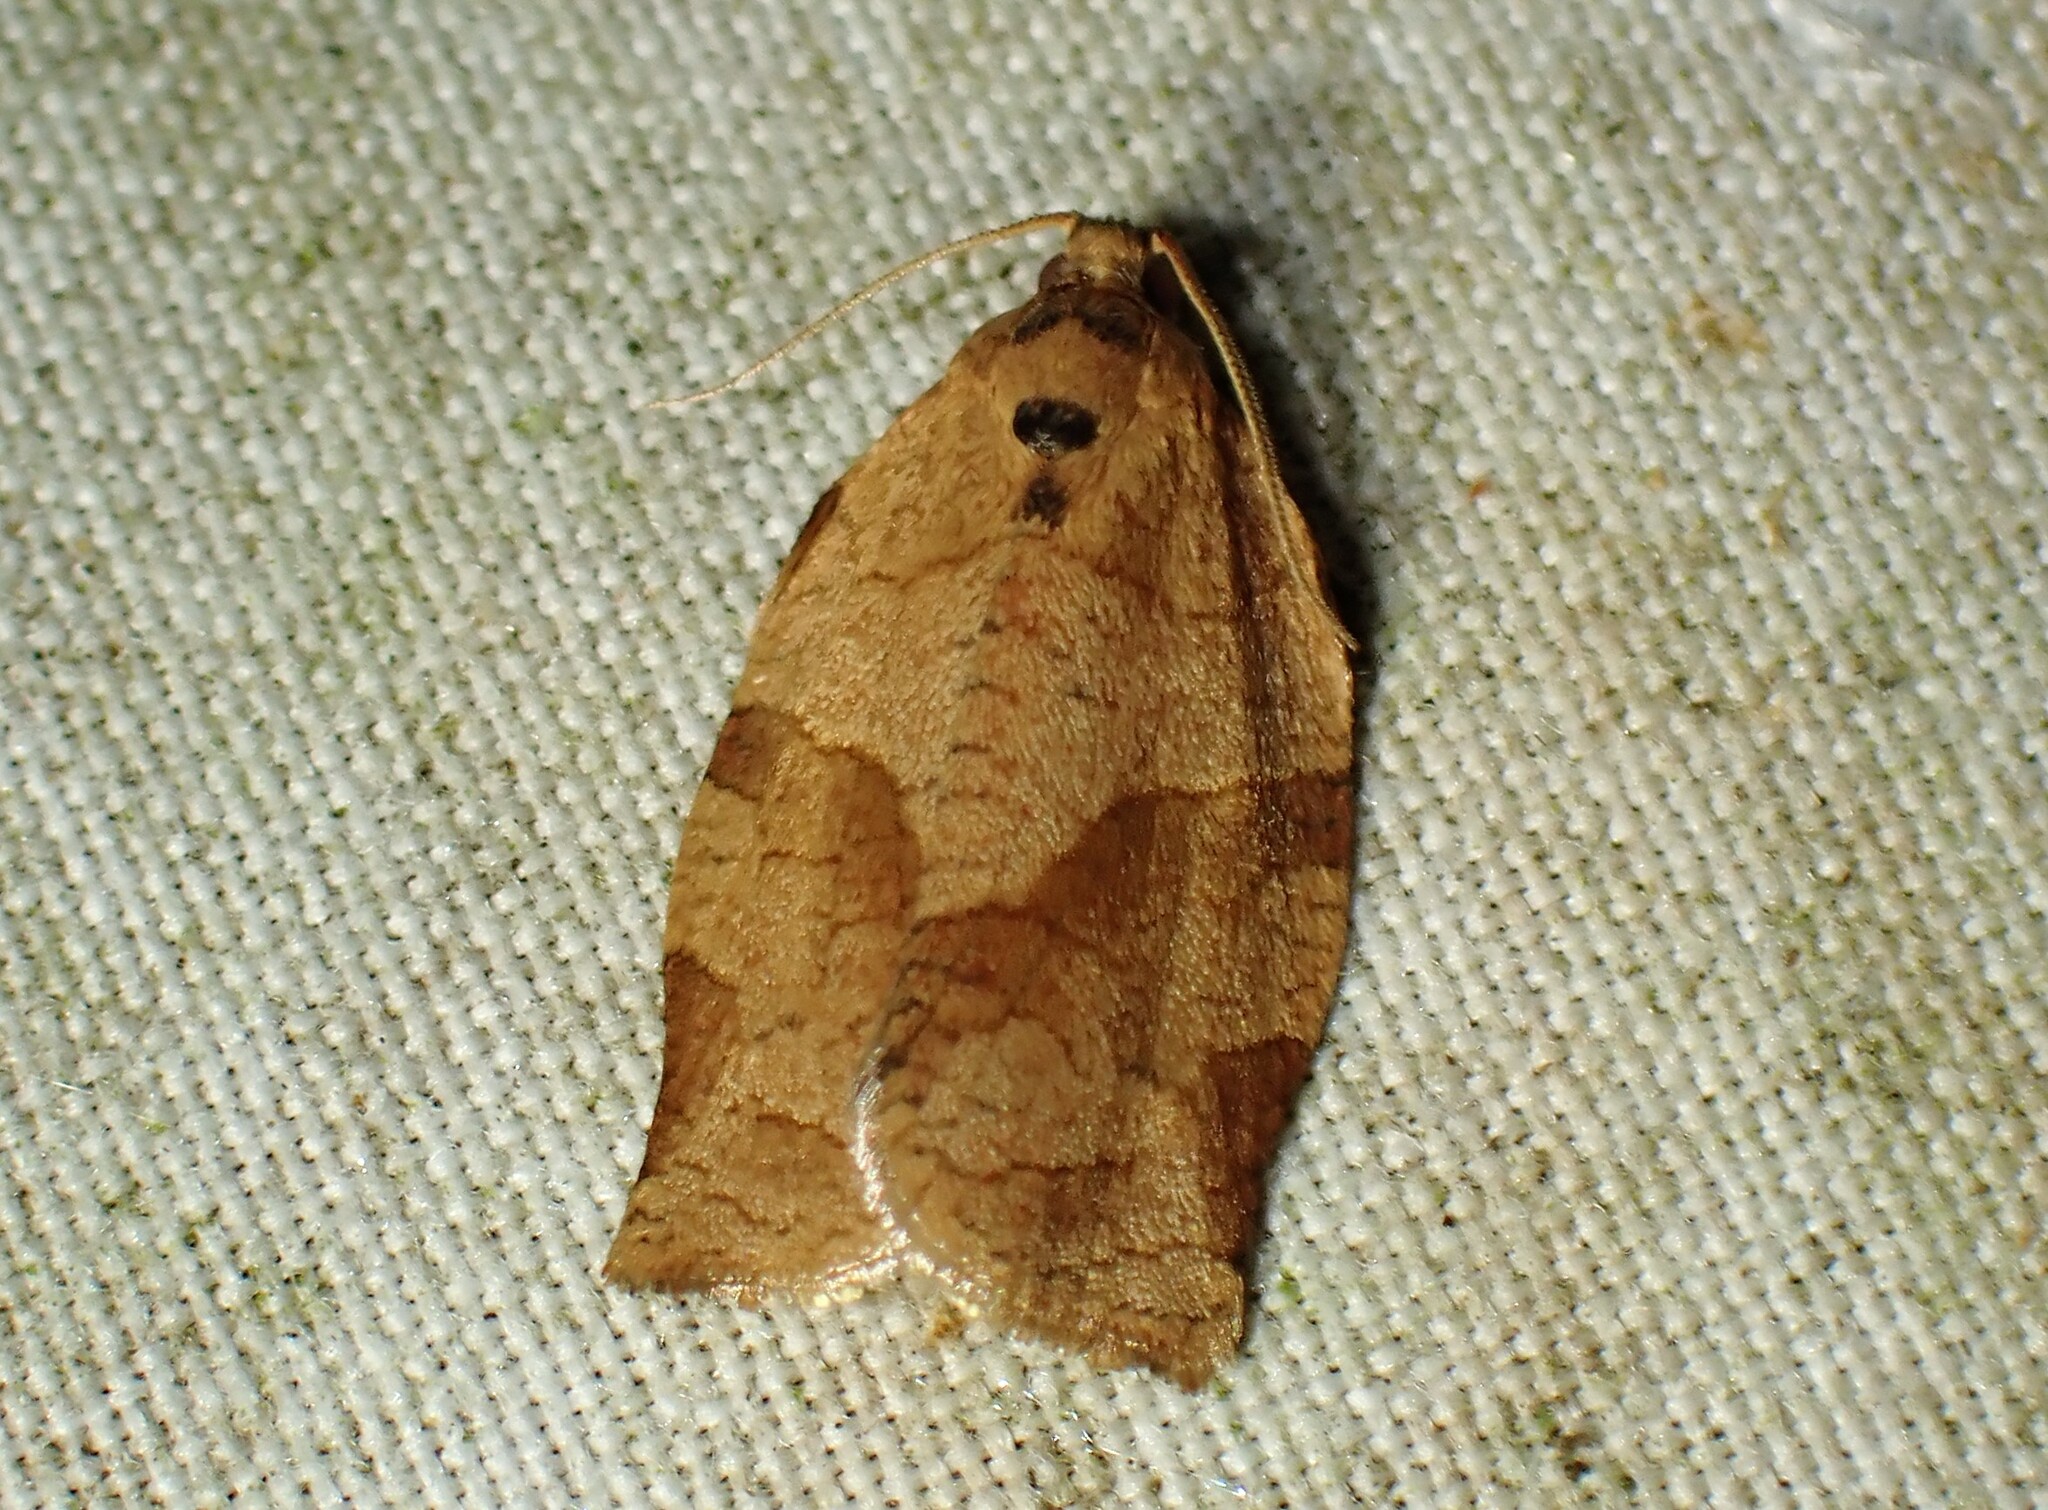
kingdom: Animalia
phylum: Arthropoda
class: Insecta
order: Lepidoptera
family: Tortricidae
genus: Choristoneura
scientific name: Choristoneura rosaceana
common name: Oblique-banded leafroller moth
